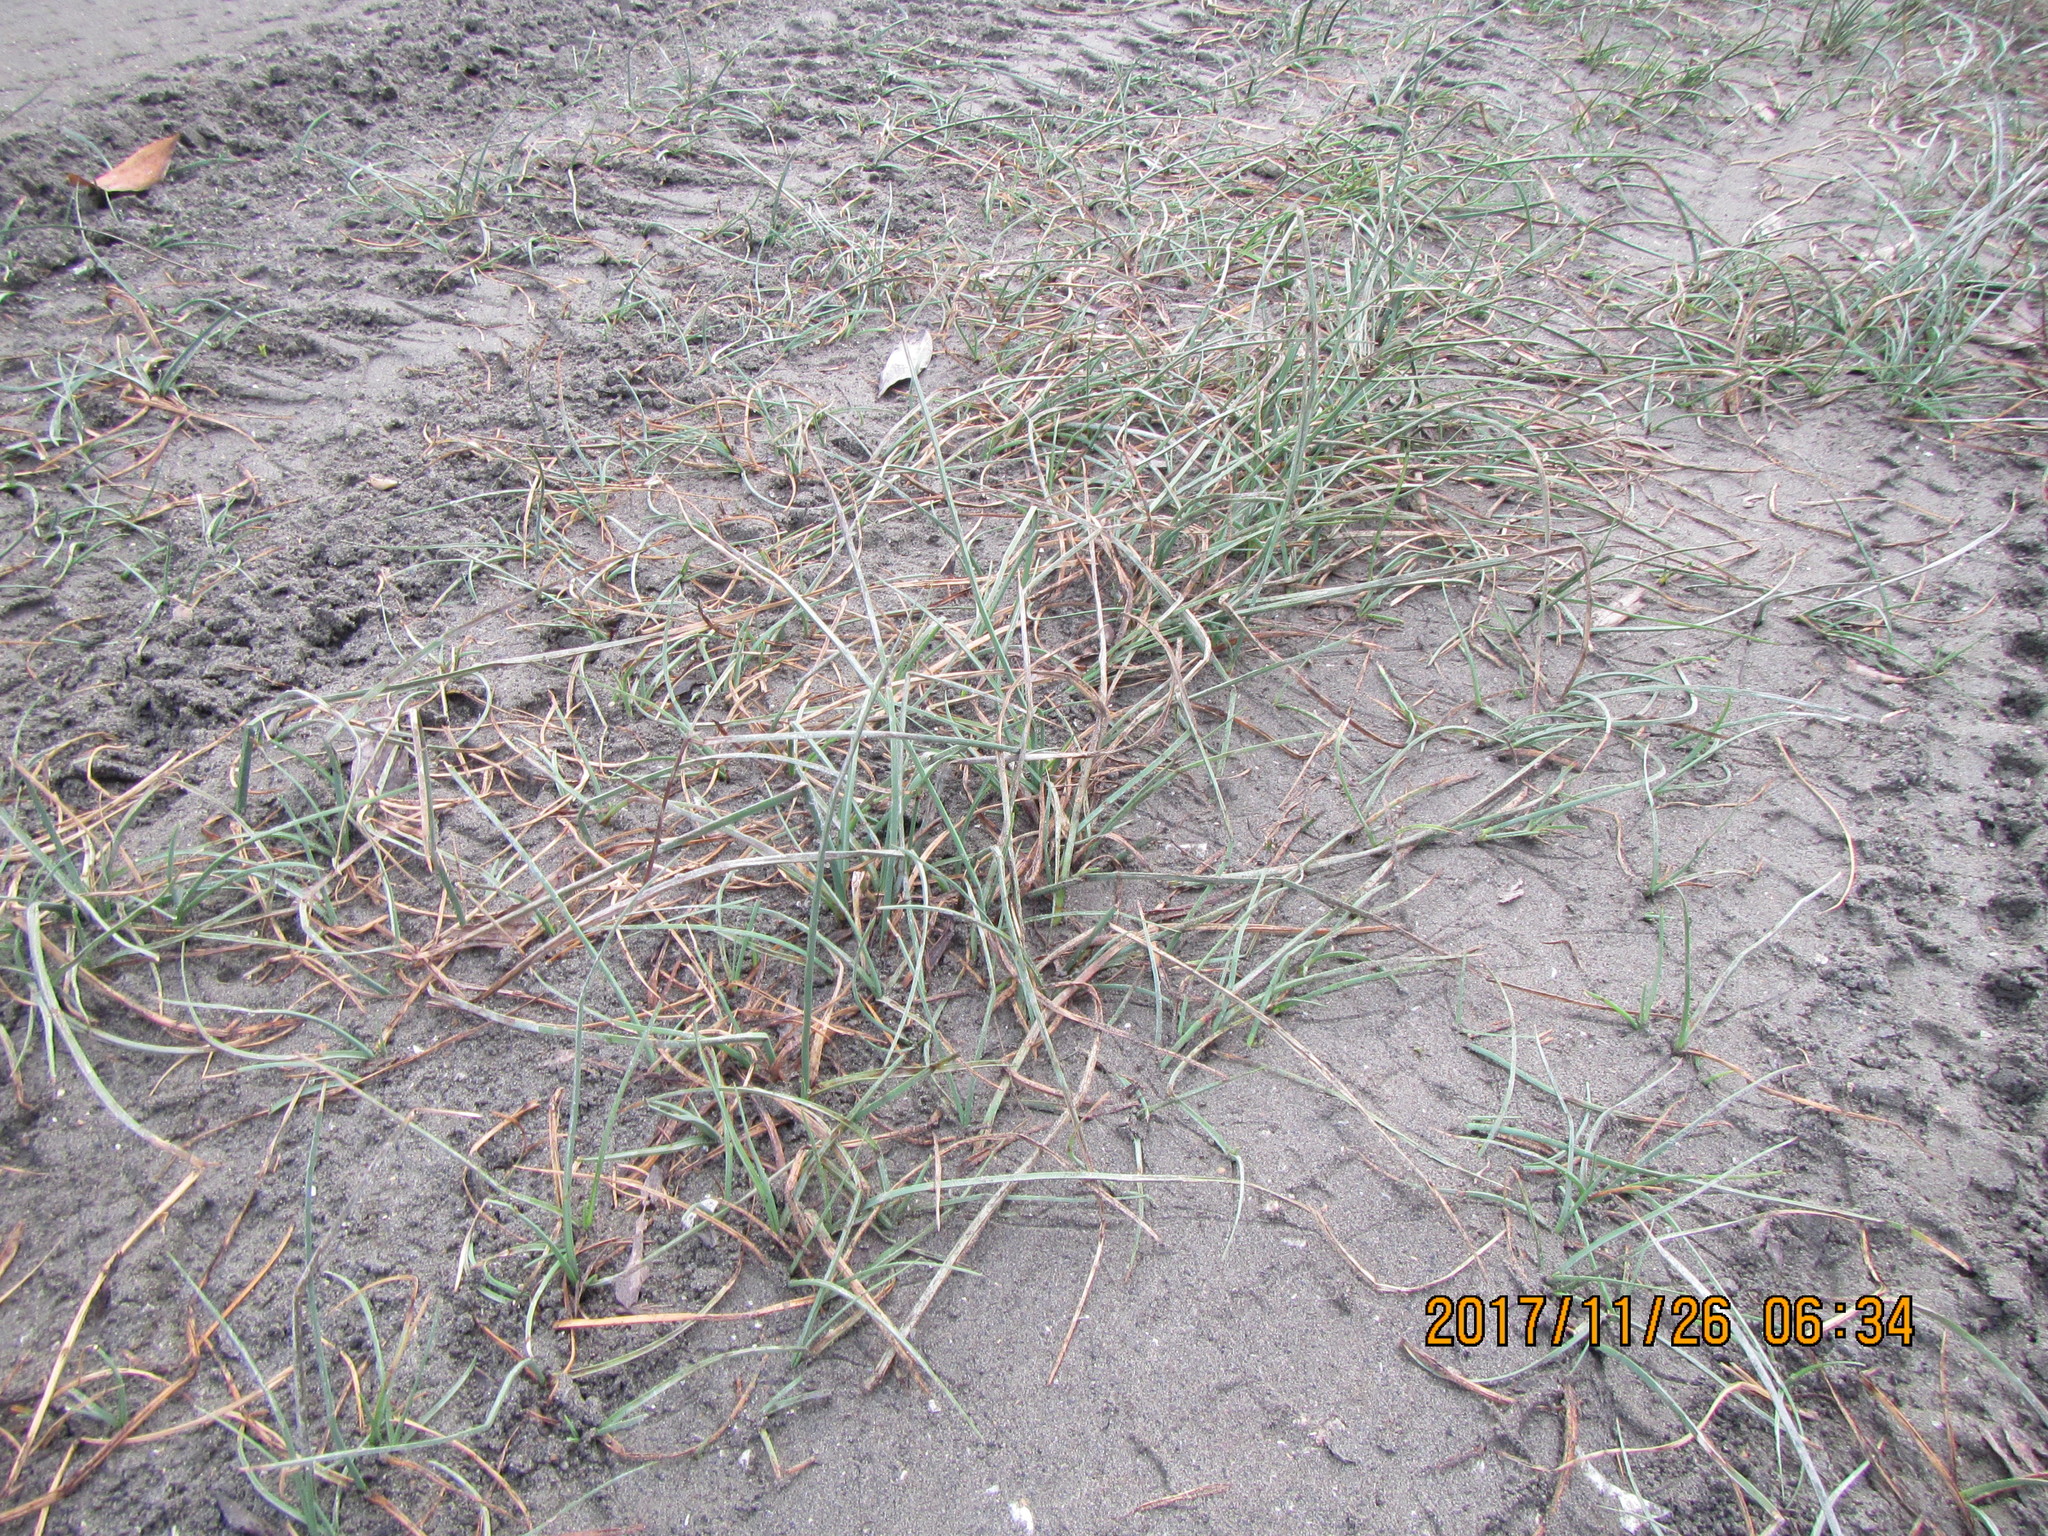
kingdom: Plantae
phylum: Tracheophyta
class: Liliopsida
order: Poales
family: Cyperaceae
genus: Schoenoplectus
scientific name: Schoenoplectus pungens
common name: Sharp club-rush
